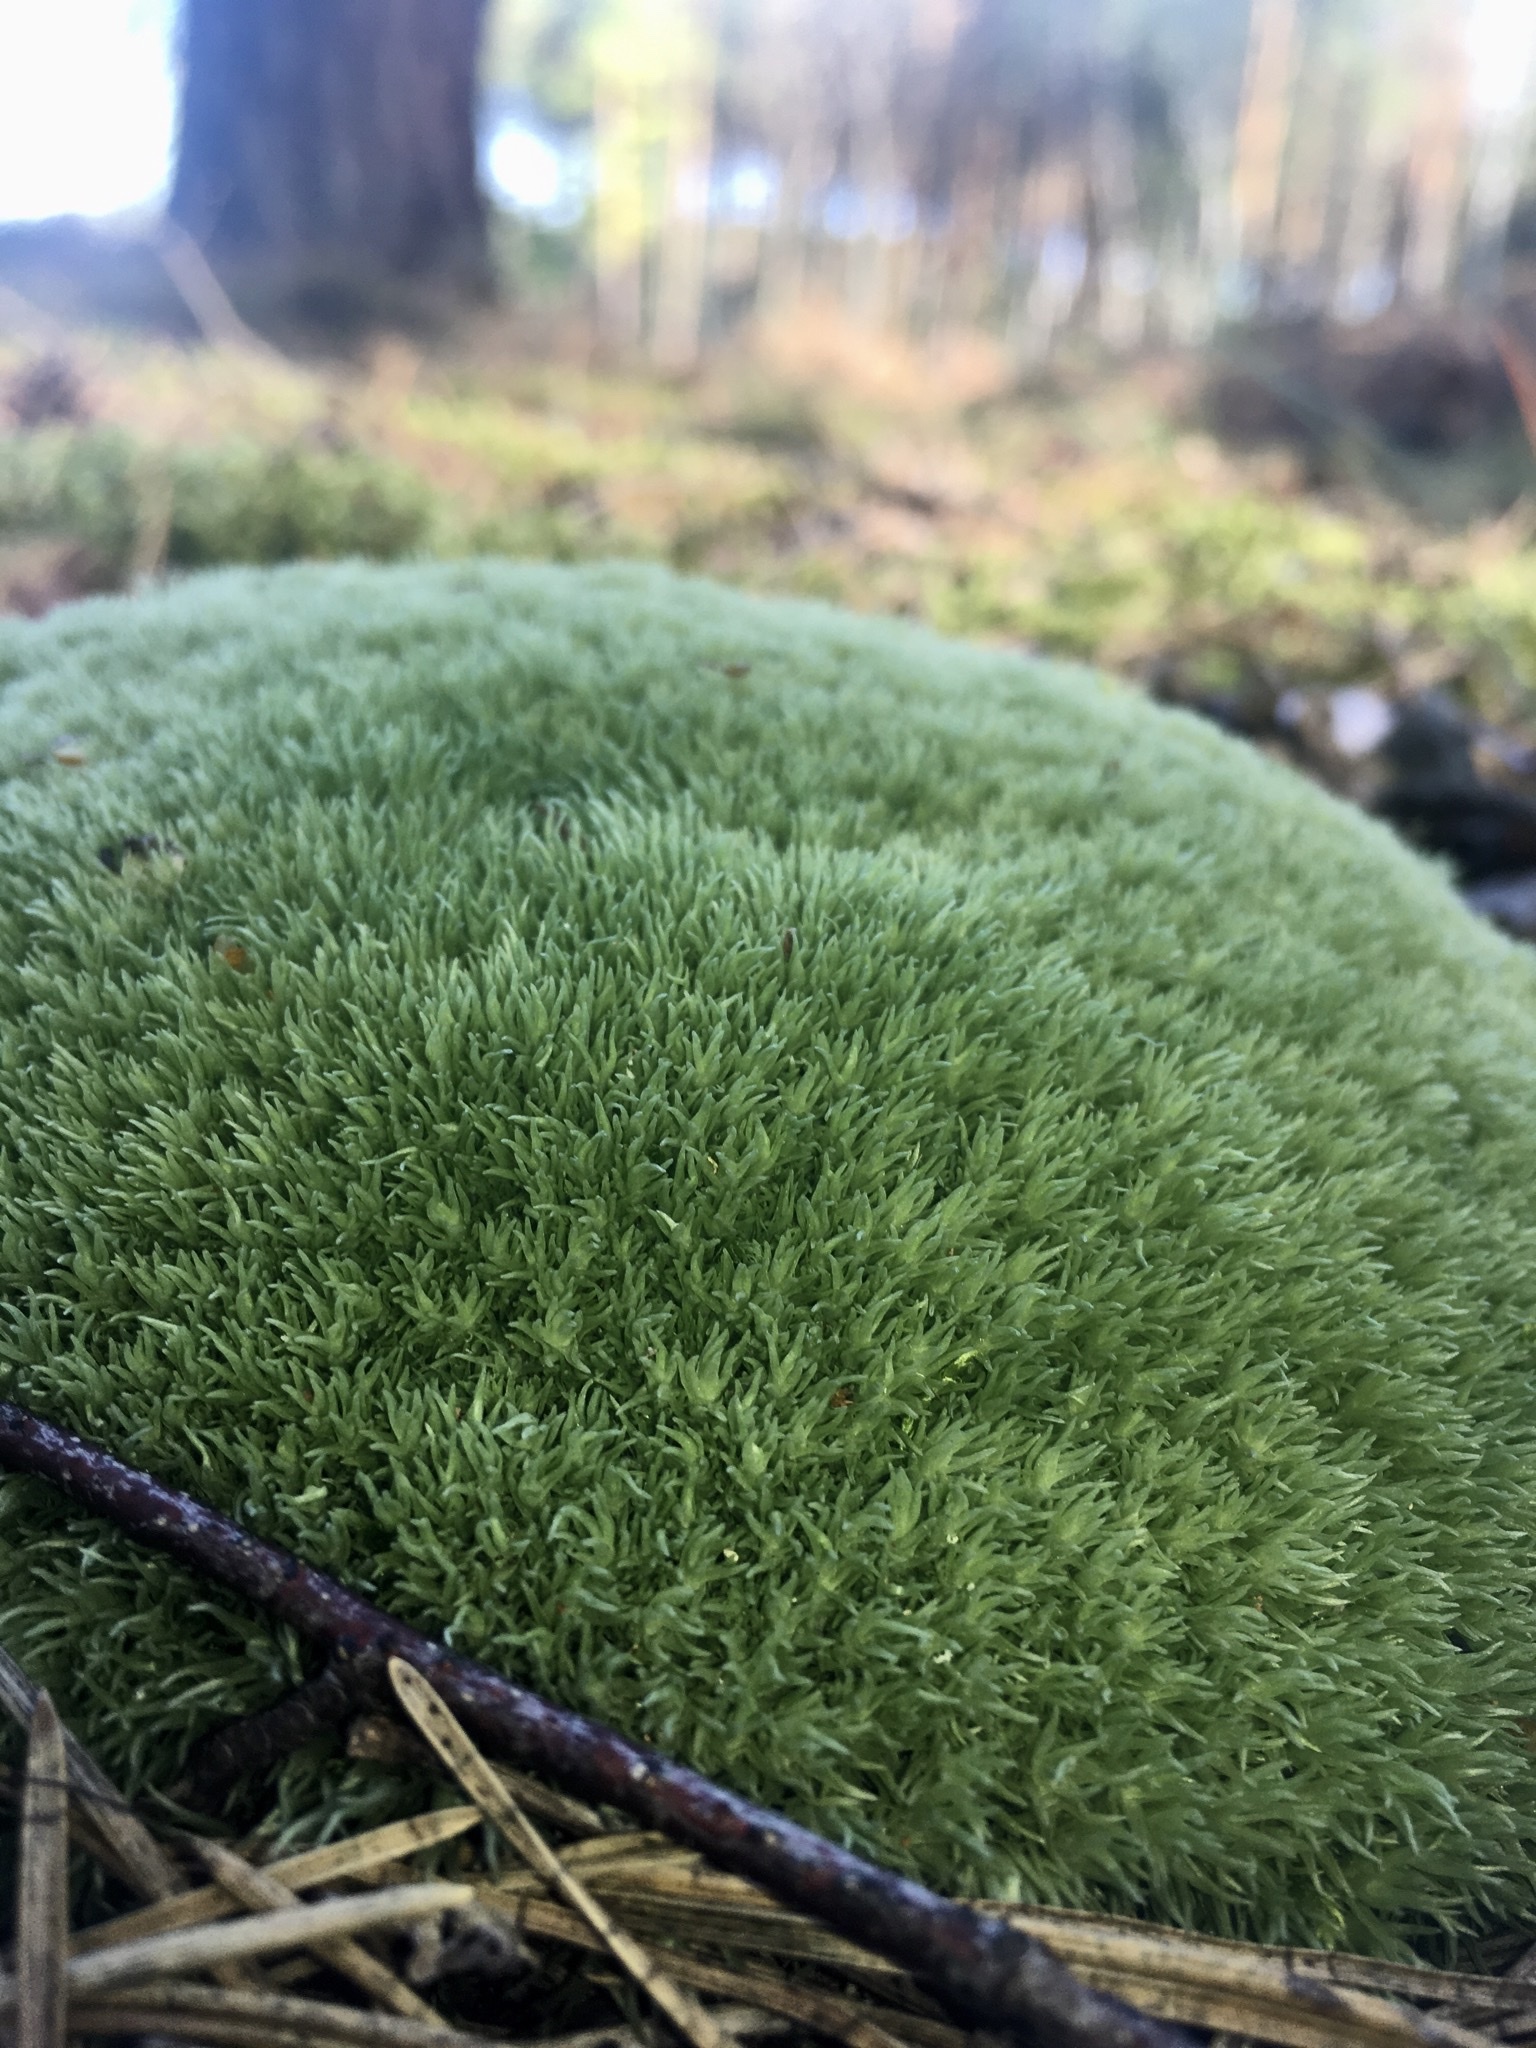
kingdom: Plantae
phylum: Bryophyta
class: Bryopsida
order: Dicranales
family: Leucobryaceae
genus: Leucobryum
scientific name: Leucobryum glaucum
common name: Large white-moss
